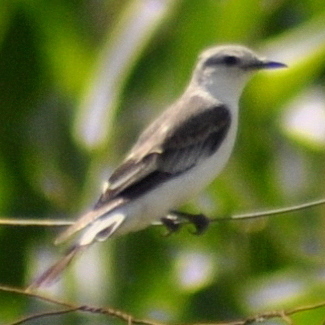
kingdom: Animalia
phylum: Chordata
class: Aves
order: Passeriformes
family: Tyrannidae
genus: Xolmis
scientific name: Xolmis velatus
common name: White-rumped monjita
